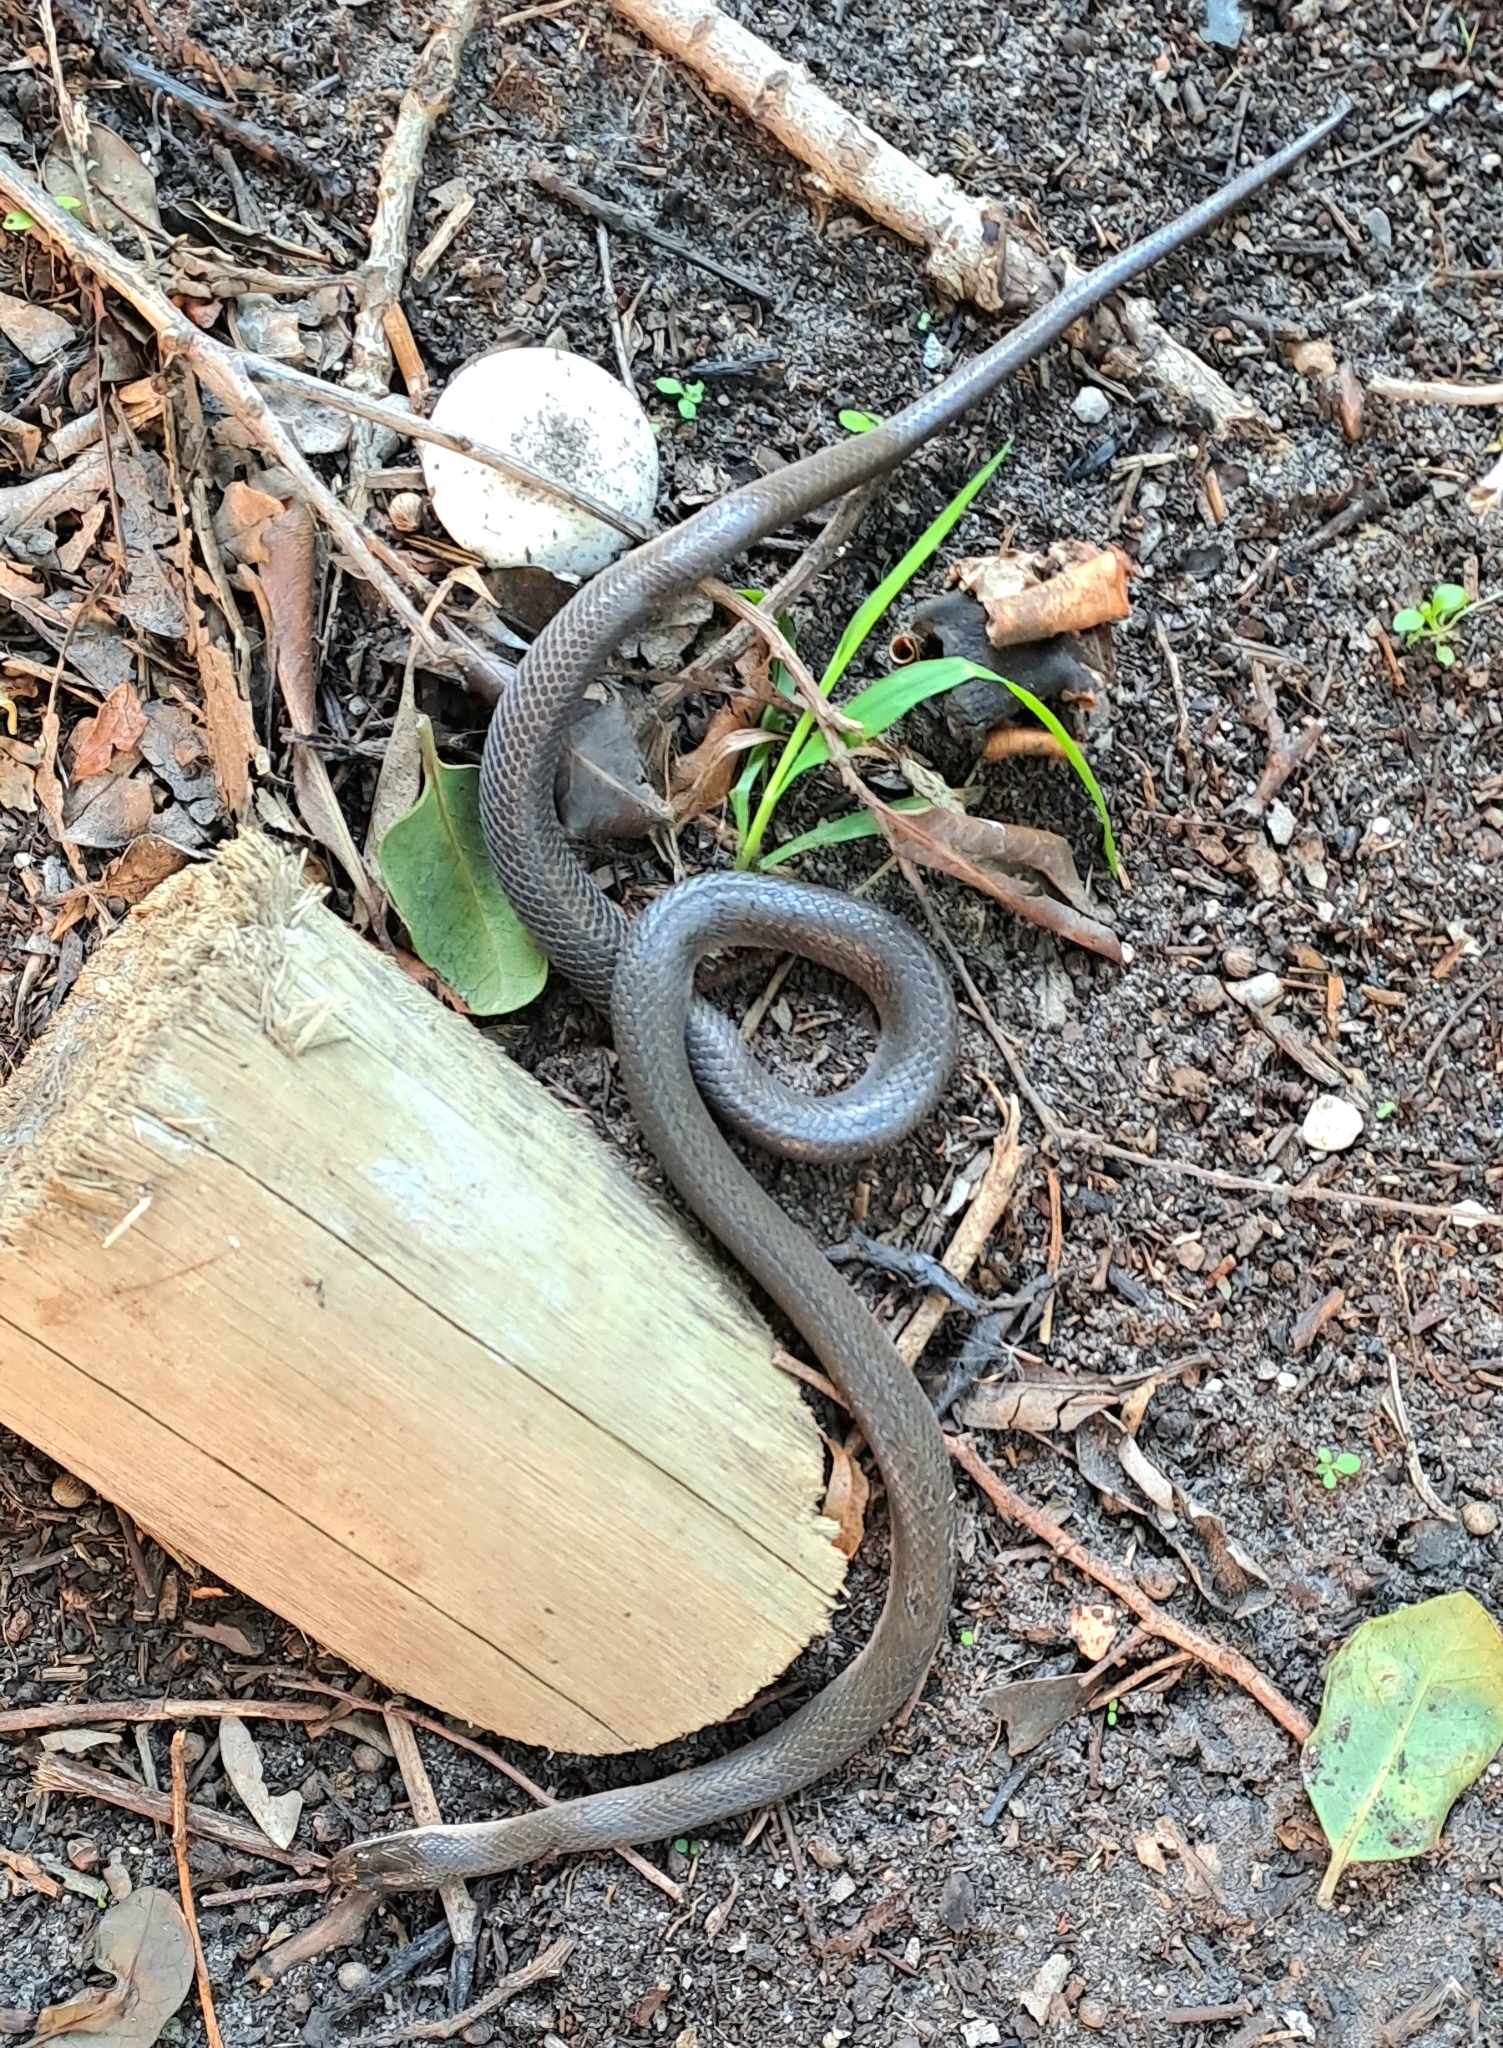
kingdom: Animalia
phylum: Chordata
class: Squamata
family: Lamprophiidae
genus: Lycodonomorphus
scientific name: Lycodonomorphus rufulus
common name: Brown water snake
